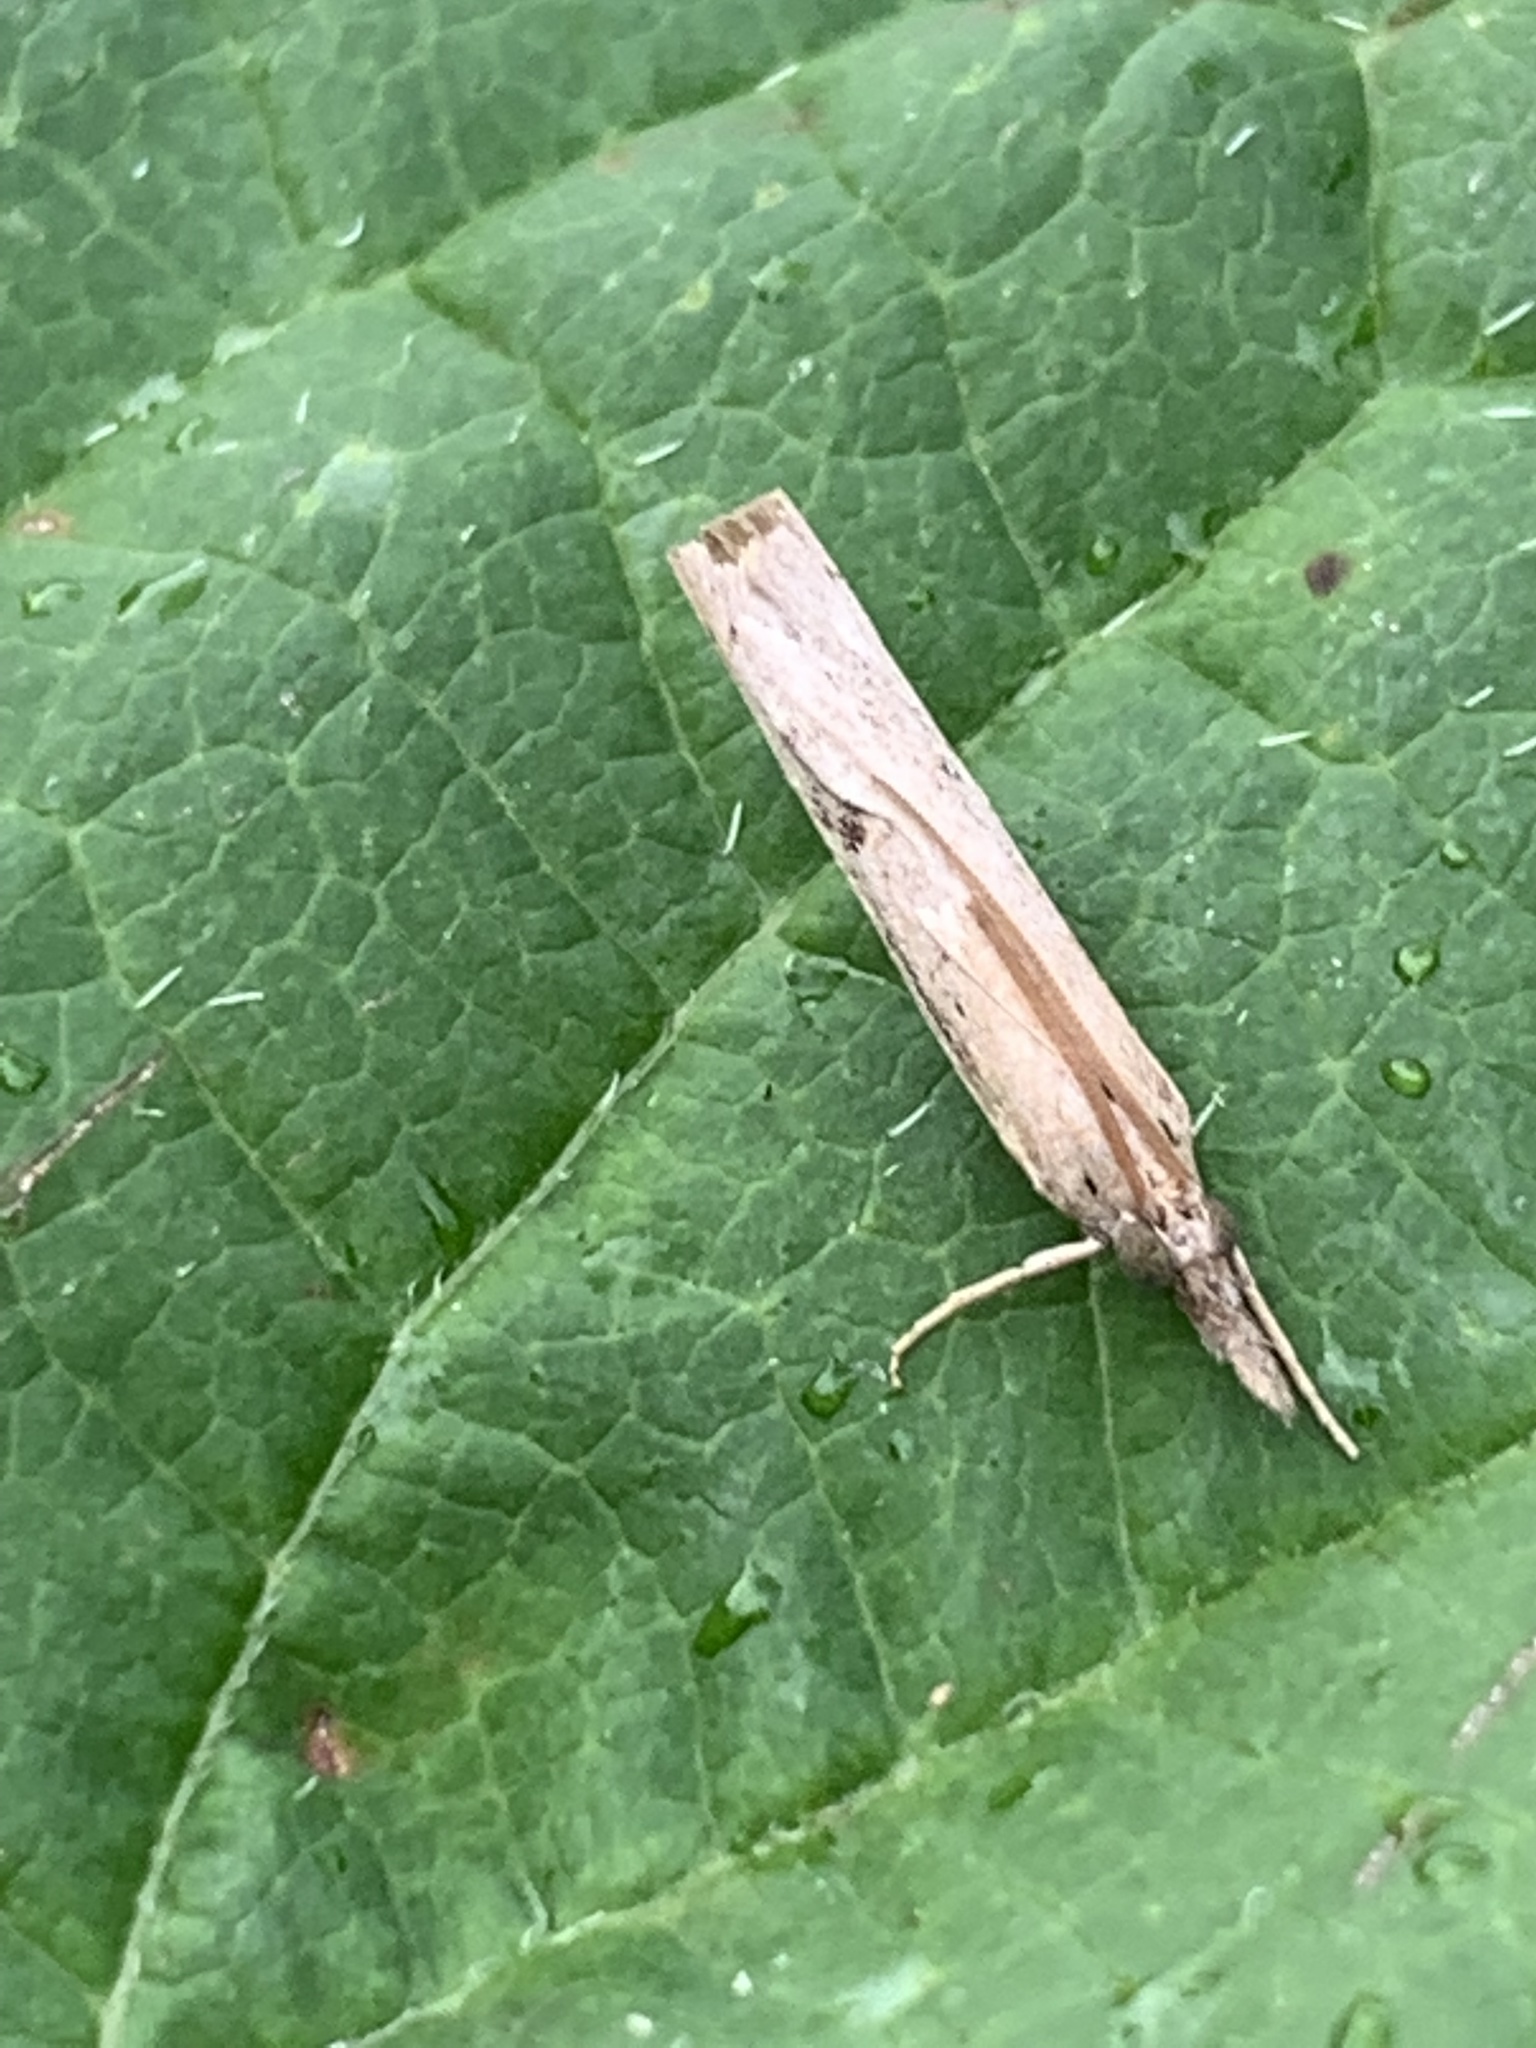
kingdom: Animalia
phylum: Arthropoda
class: Insecta
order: Lepidoptera
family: Crambidae
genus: Fissicrambus
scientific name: Fissicrambus mutabilis
